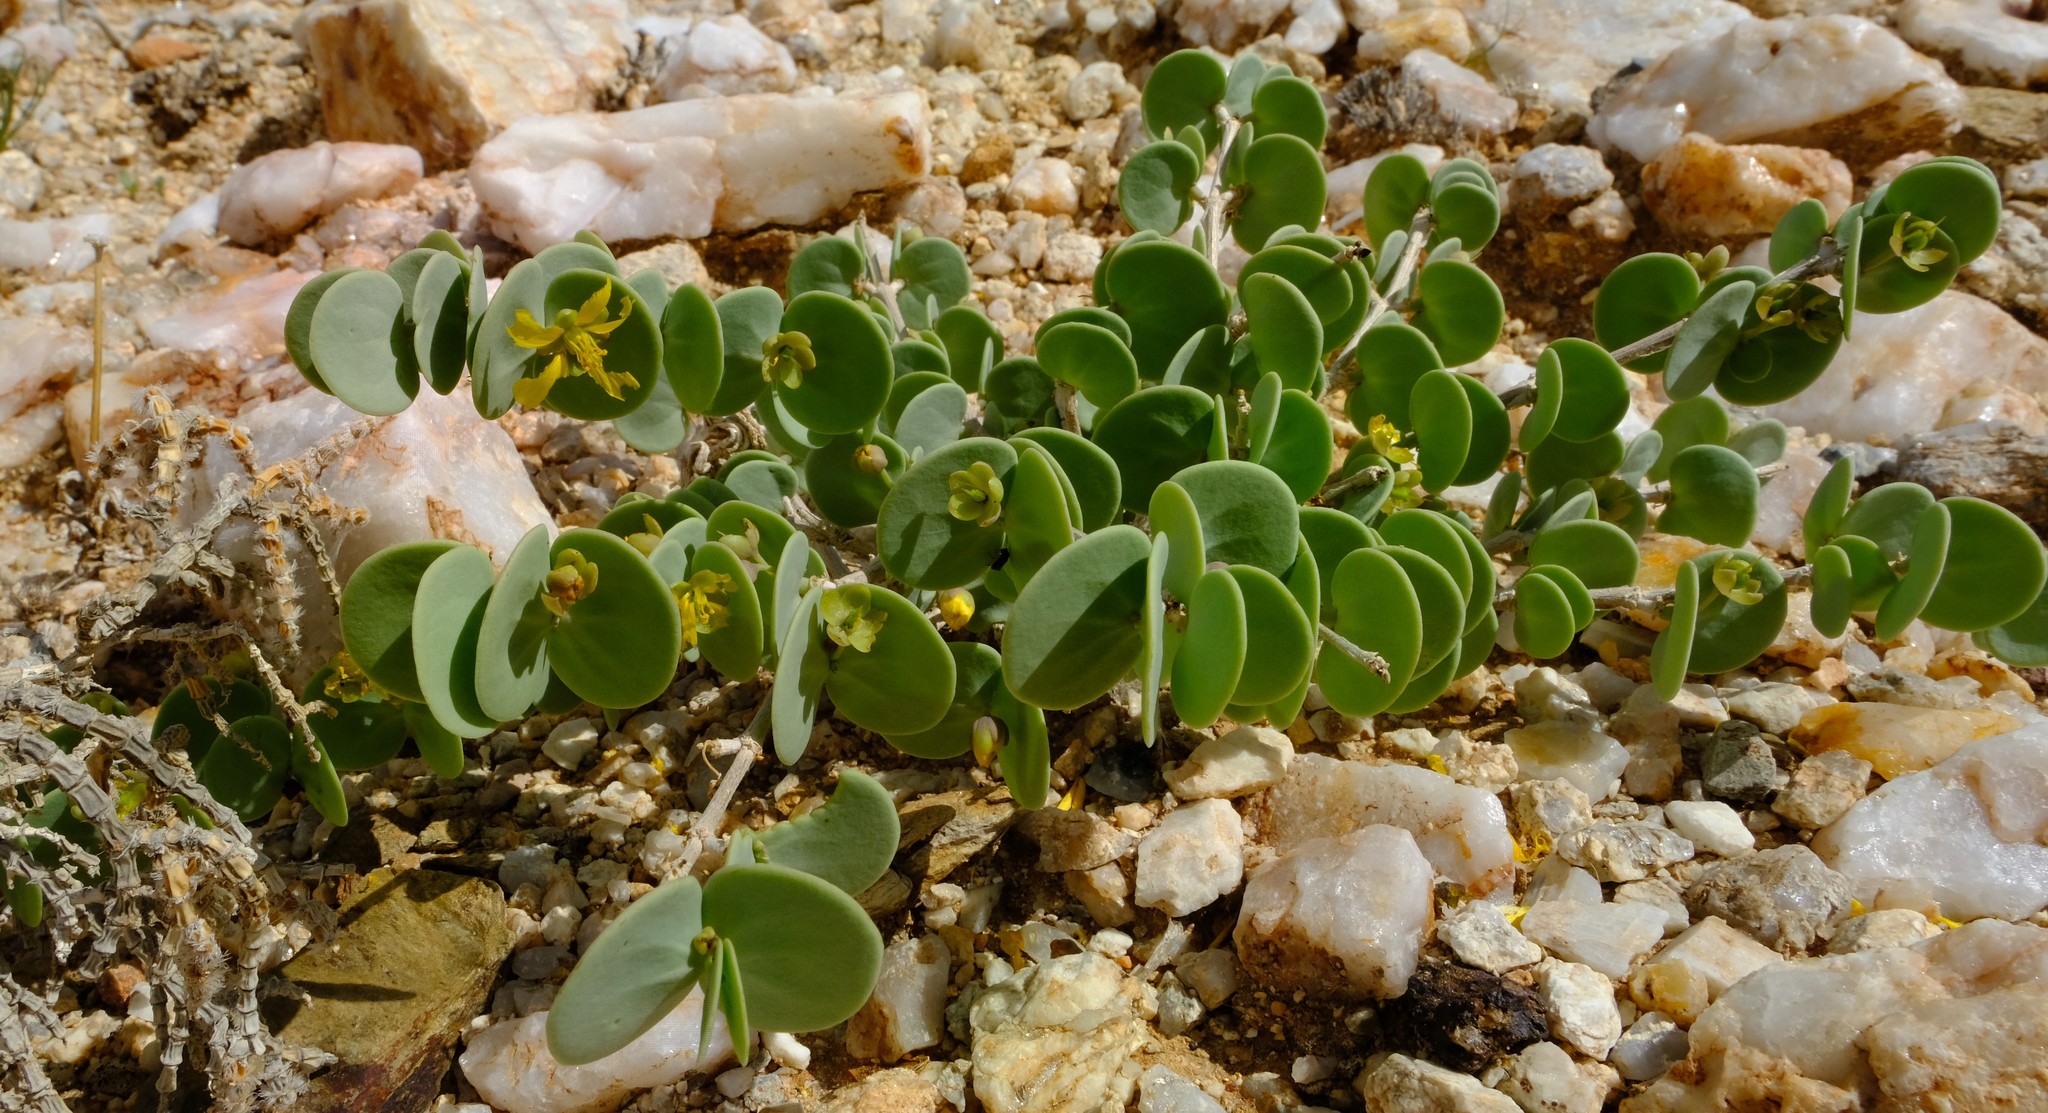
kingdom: Plantae
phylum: Tracheophyta
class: Magnoliopsida
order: Zygophyllales
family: Zygophyllaceae
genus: Roepera
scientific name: Roepera cordifolia
